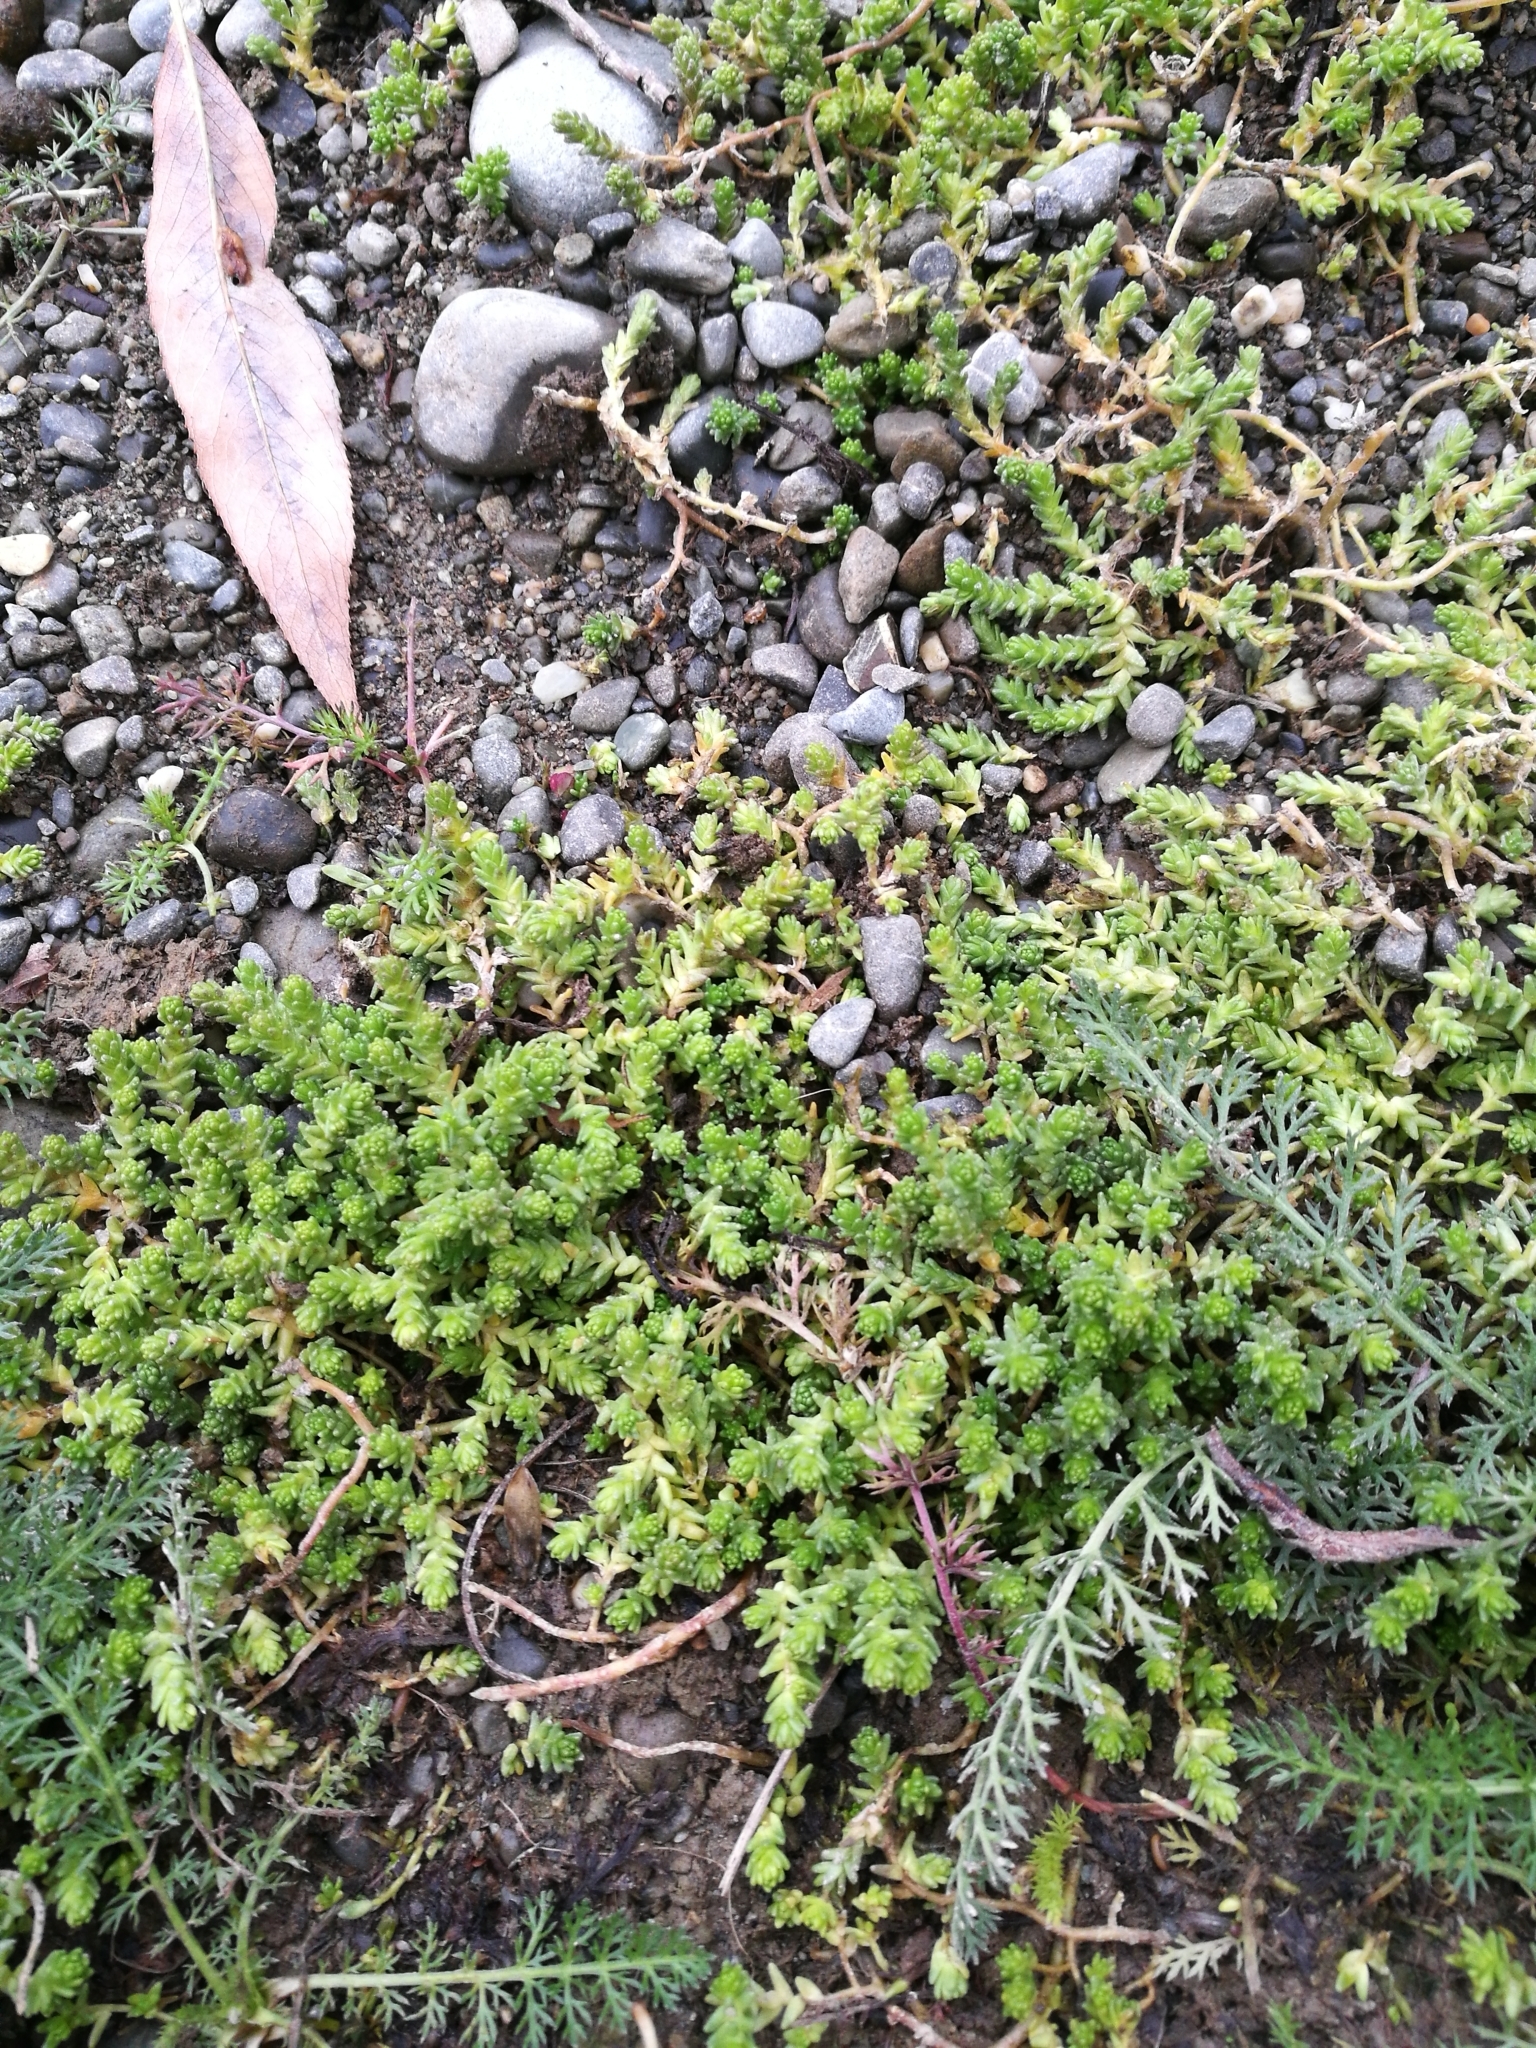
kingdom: Plantae
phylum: Tracheophyta
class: Magnoliopsida
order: Saxifragales
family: Crassulaceae
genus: Sedum
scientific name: Sedum acre
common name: Biting stonecrop
